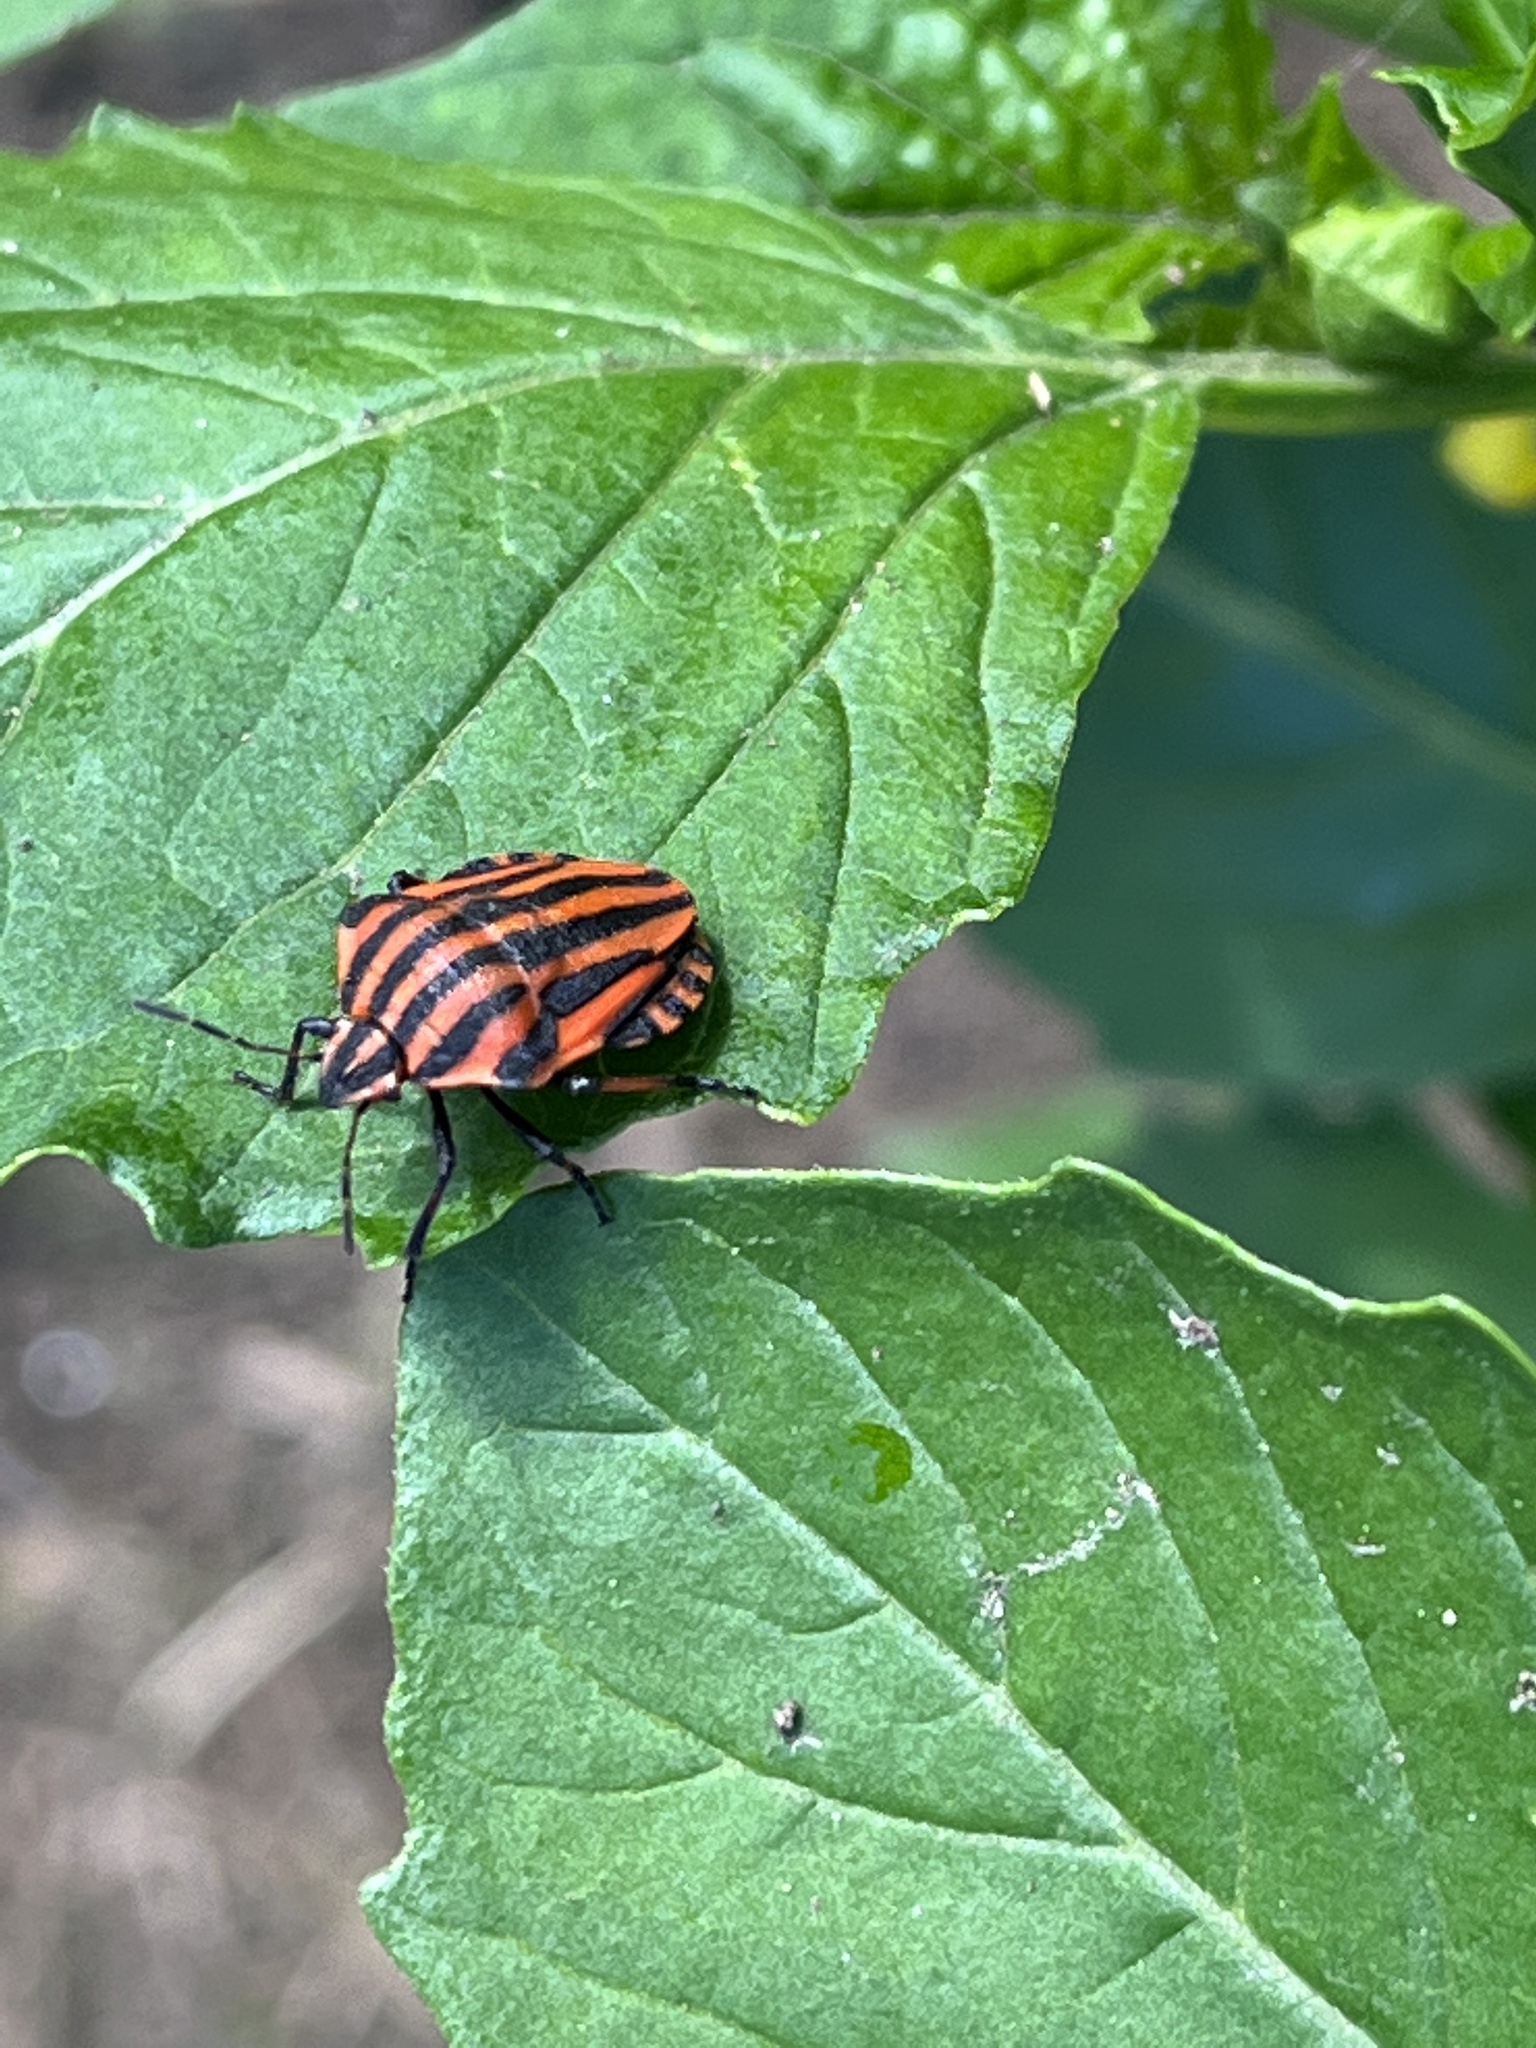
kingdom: Animalia
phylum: Arthropoda
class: Insecta
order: Hemiptera
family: Pentatomidae
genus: Graphosoma
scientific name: Graphosoma italicum
